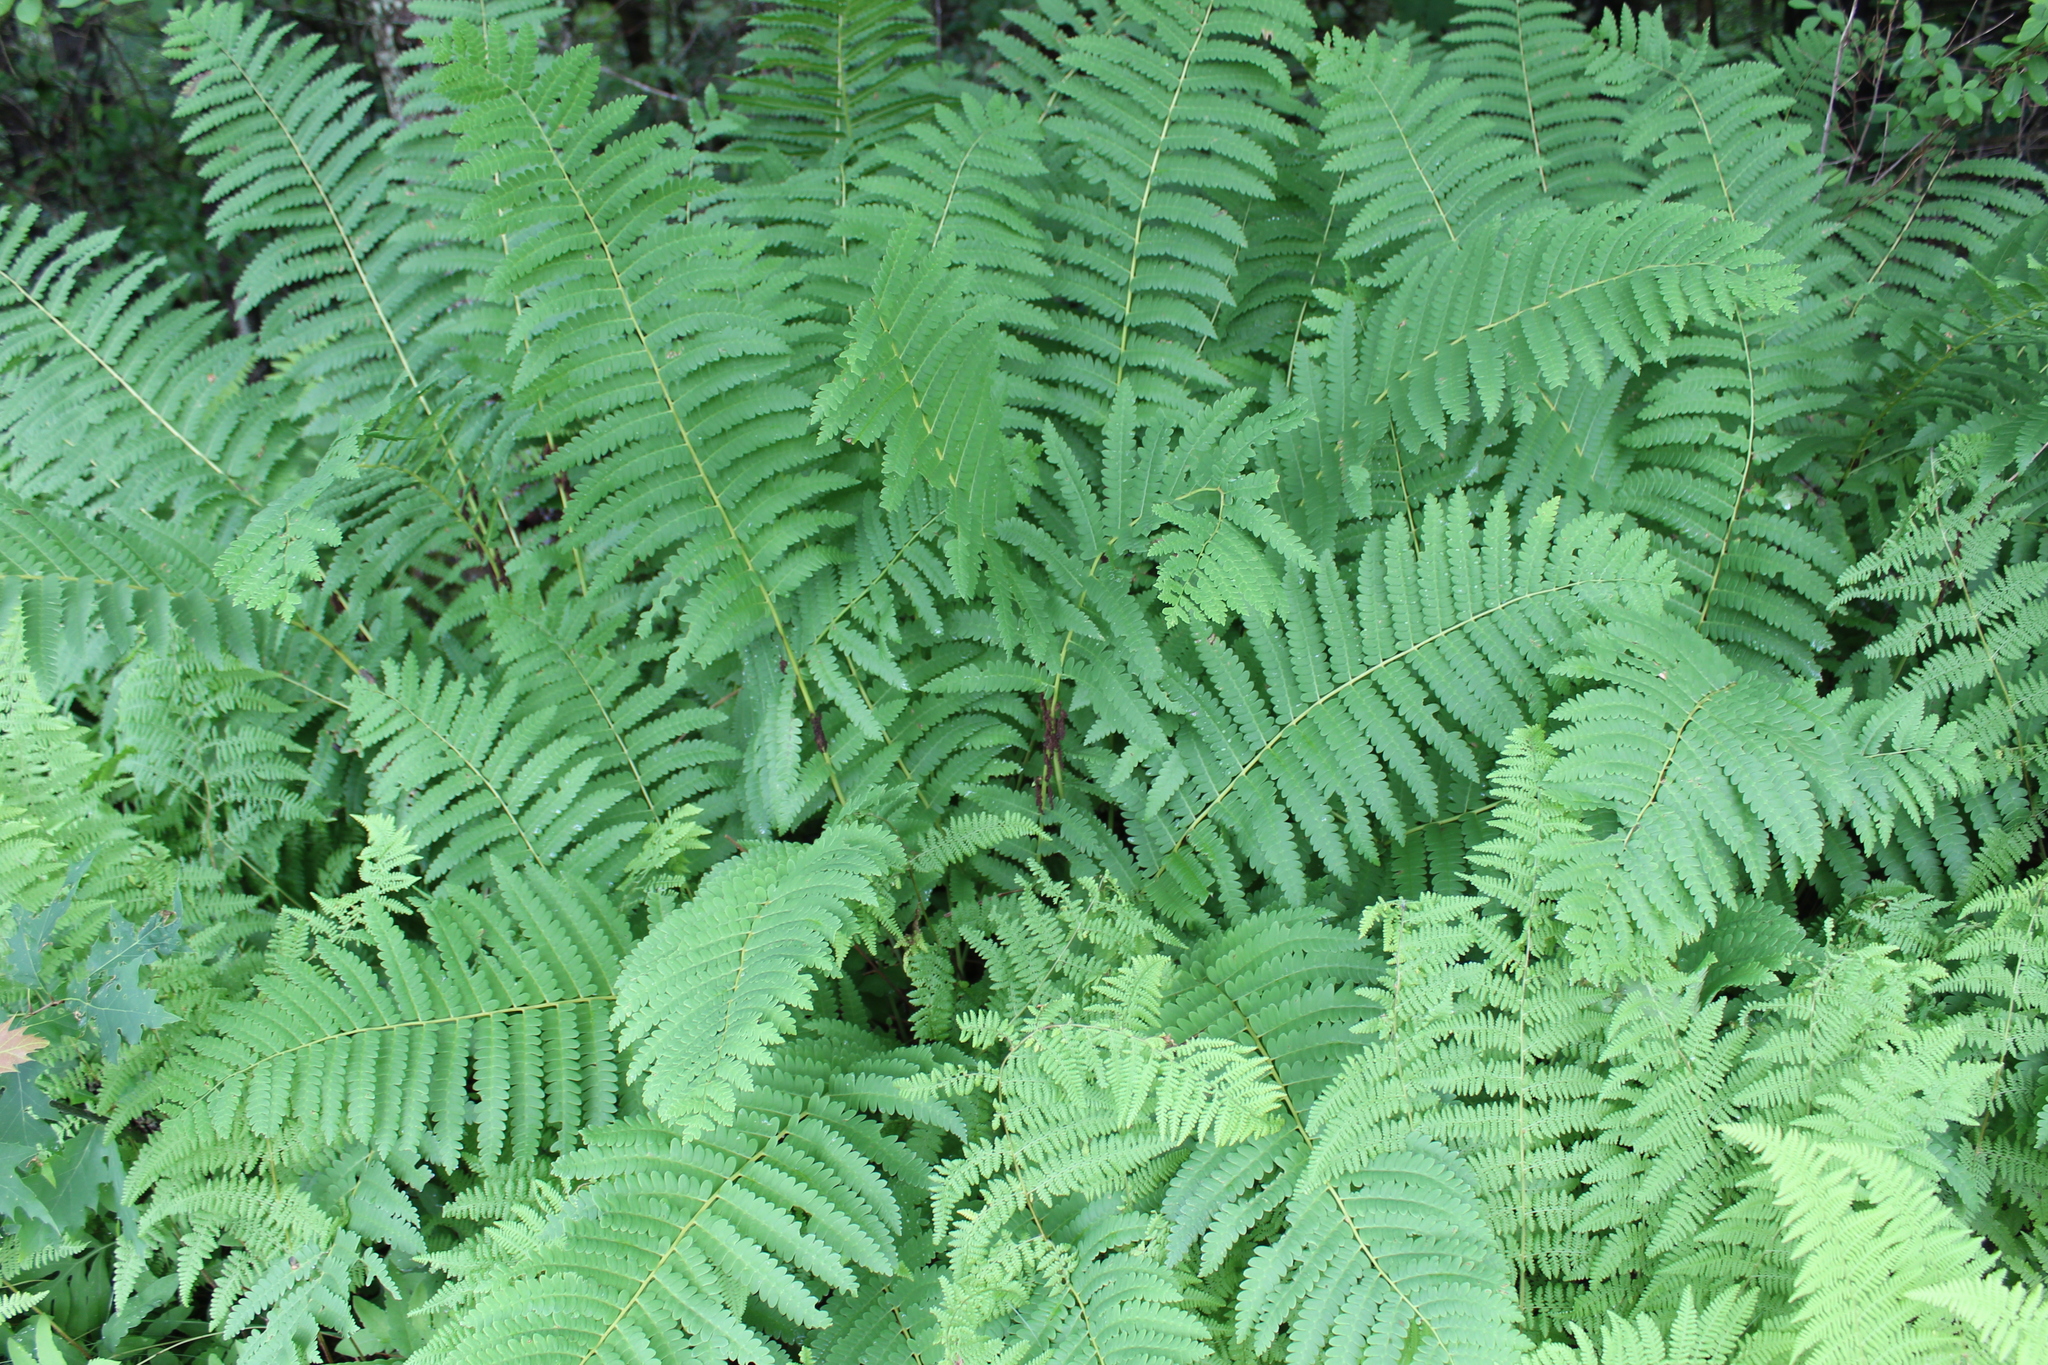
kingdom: Plantae
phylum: Tracheophyta
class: Polypodiopsida
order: Osmundales
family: Osmundaceae
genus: Claytosmunda
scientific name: Claytosmunda claytoniana
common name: Clayton's fern
